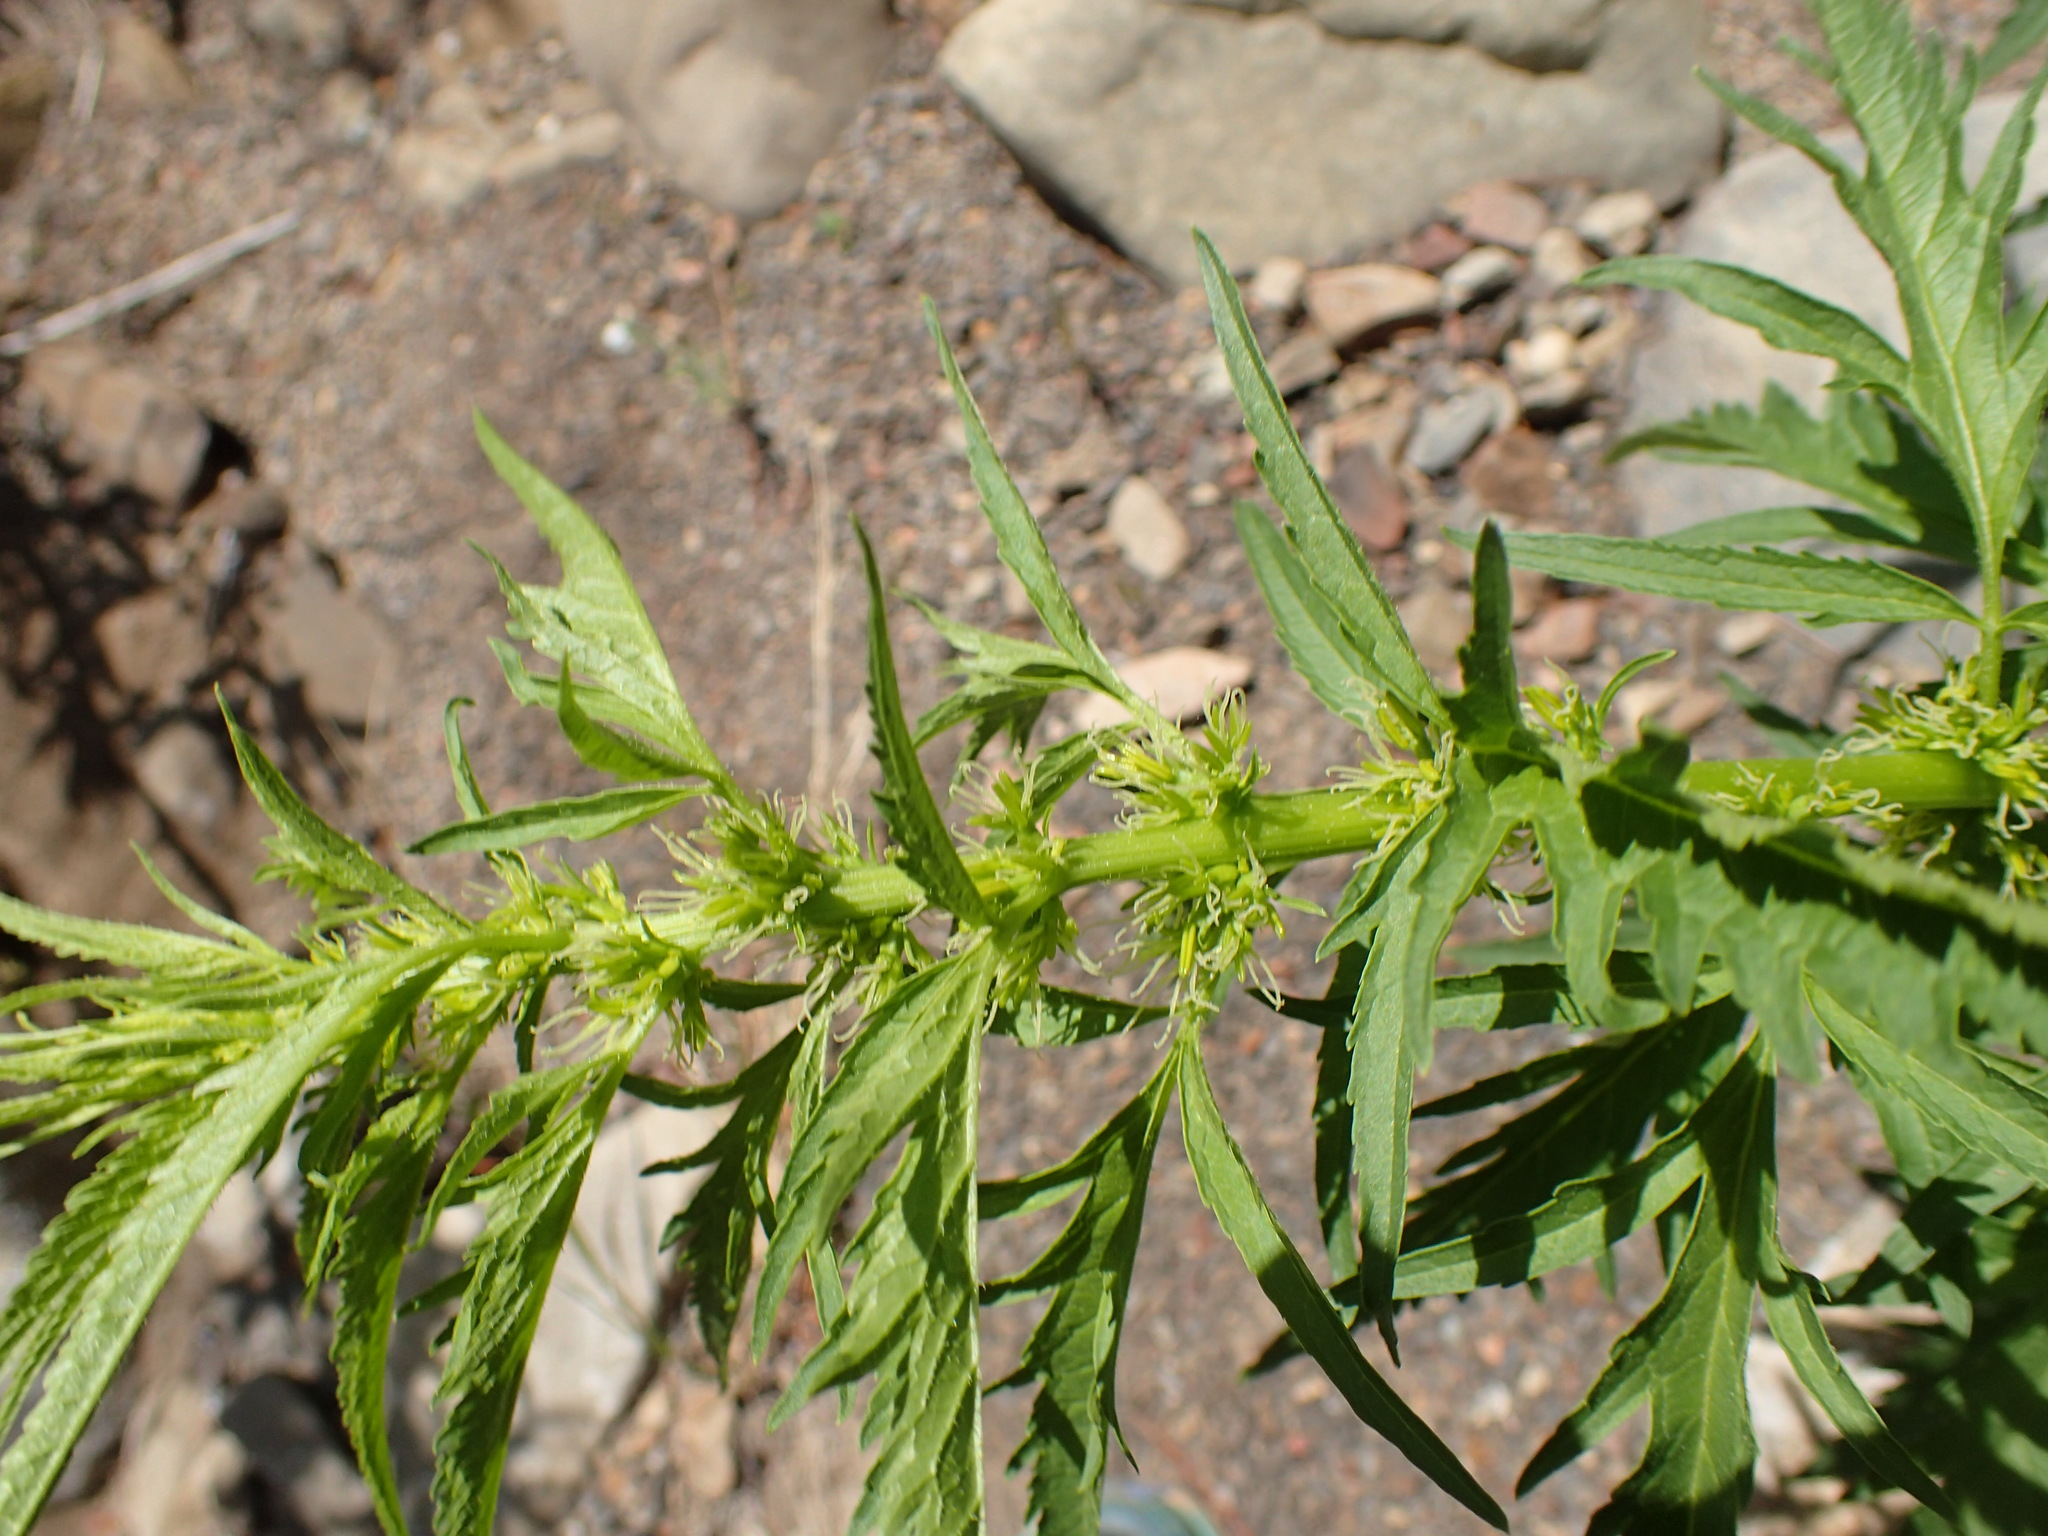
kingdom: Plantae
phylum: Tracheophyta
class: Magnoliopsida
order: Cucurbitales
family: Datiscaceae
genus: Datisca
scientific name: Datisca glomerata
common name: Durango-root
